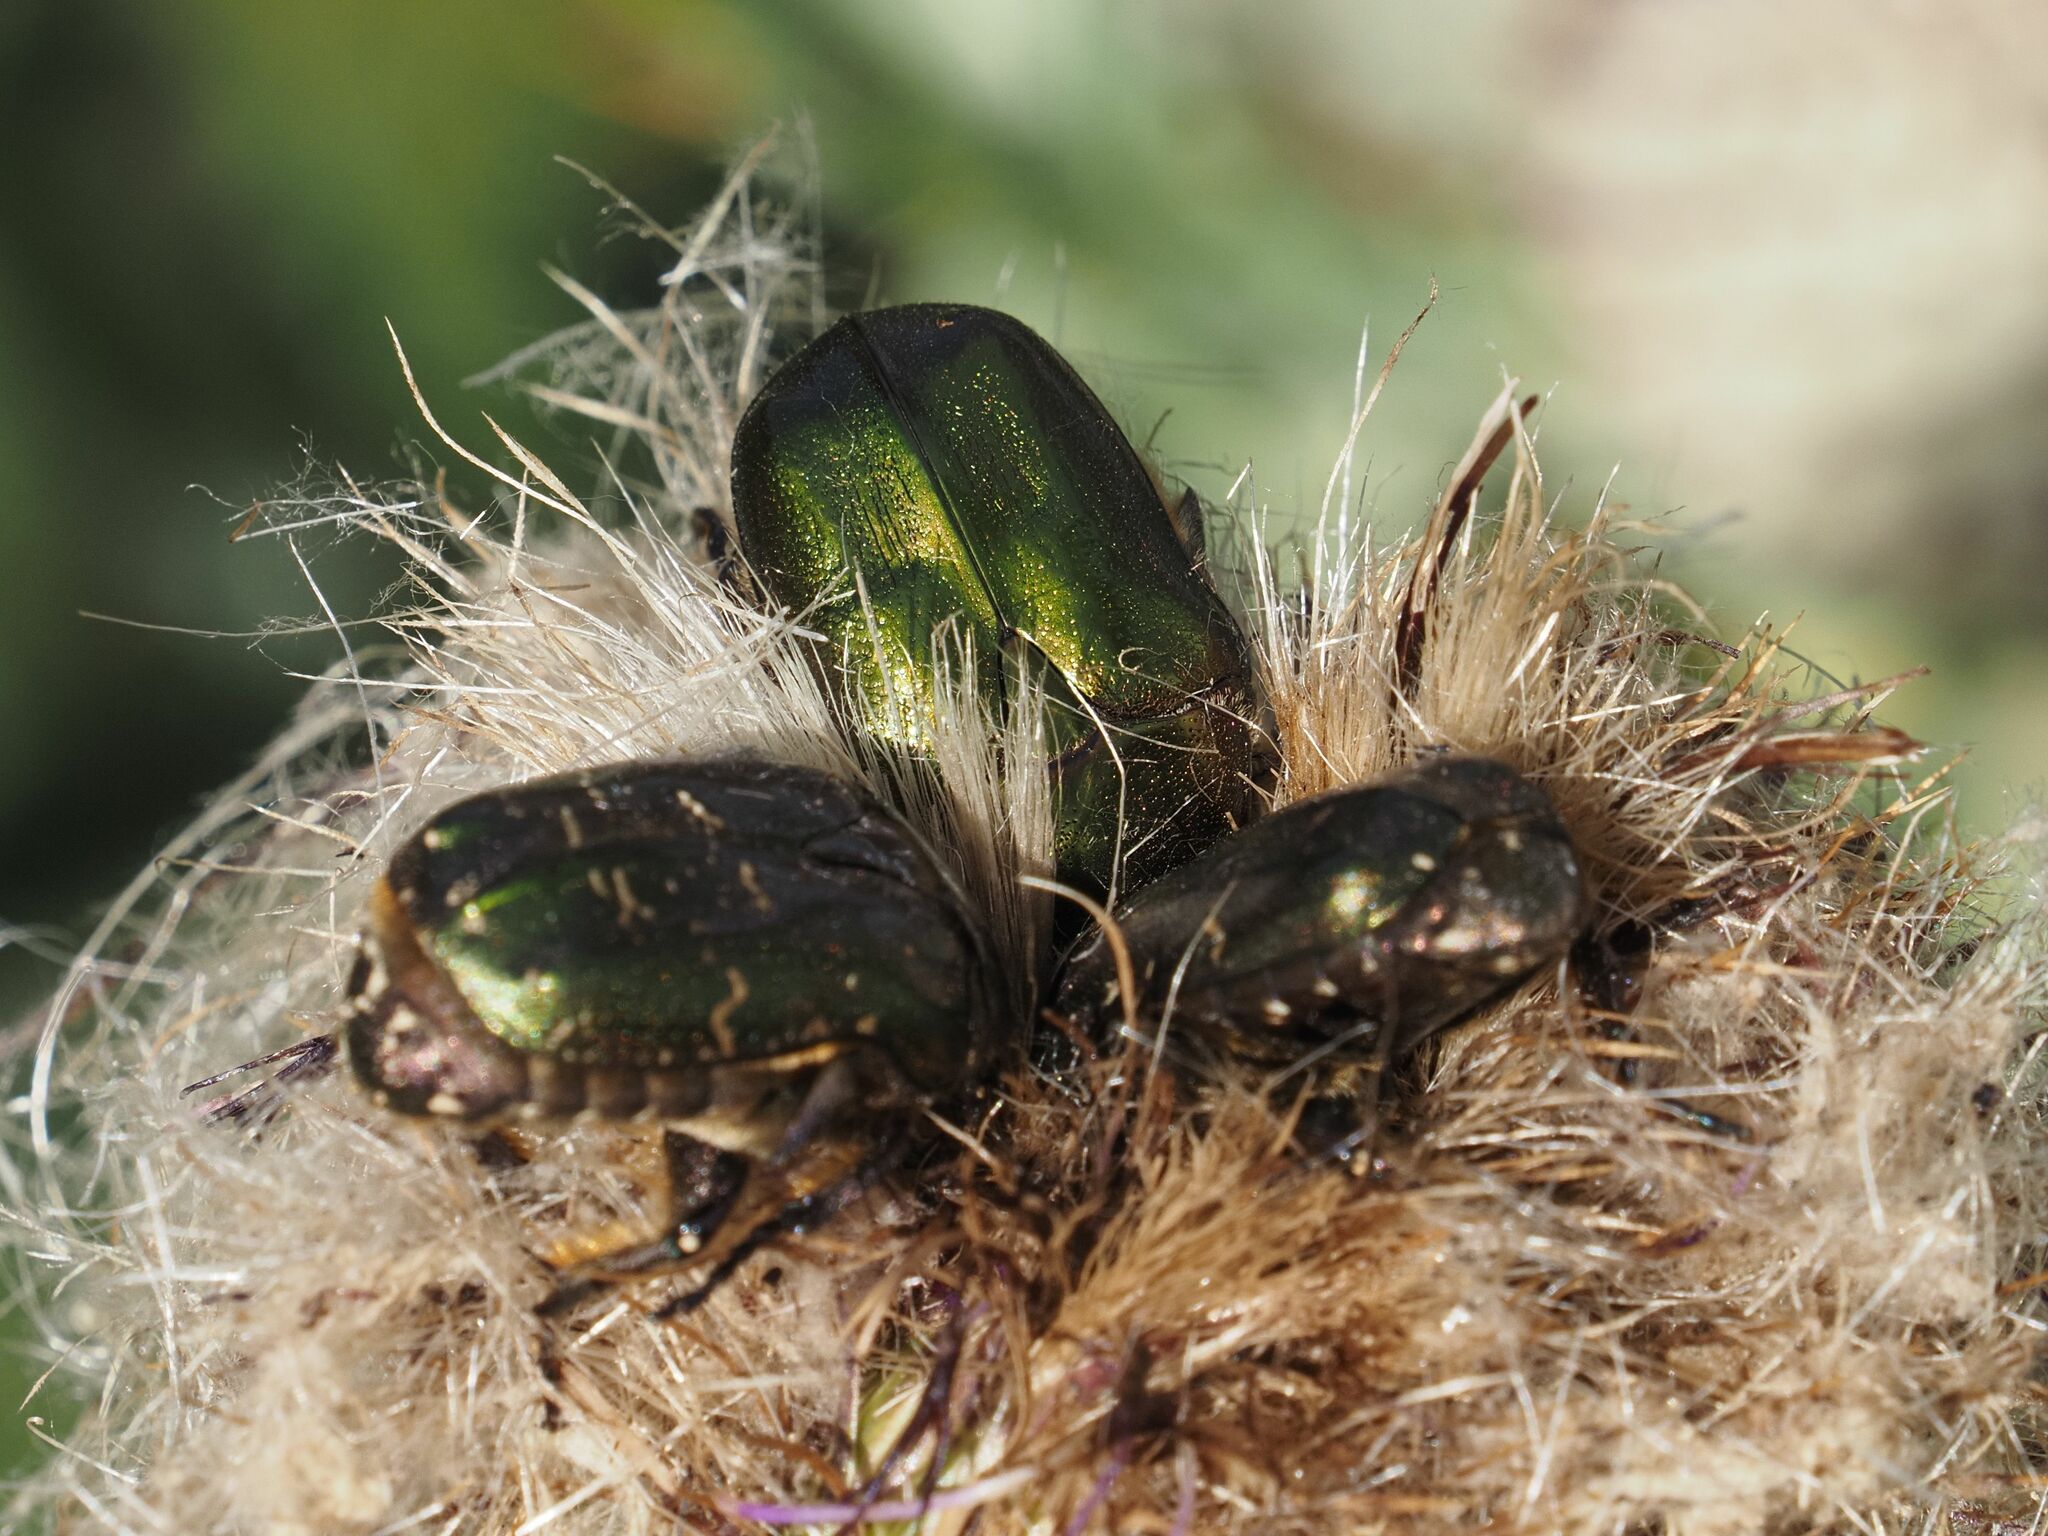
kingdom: Animalia
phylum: Arthropoda
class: Insecta
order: Coleoptera
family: Scarabaeidae
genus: Protaetia
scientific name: Protaetia cuprea
